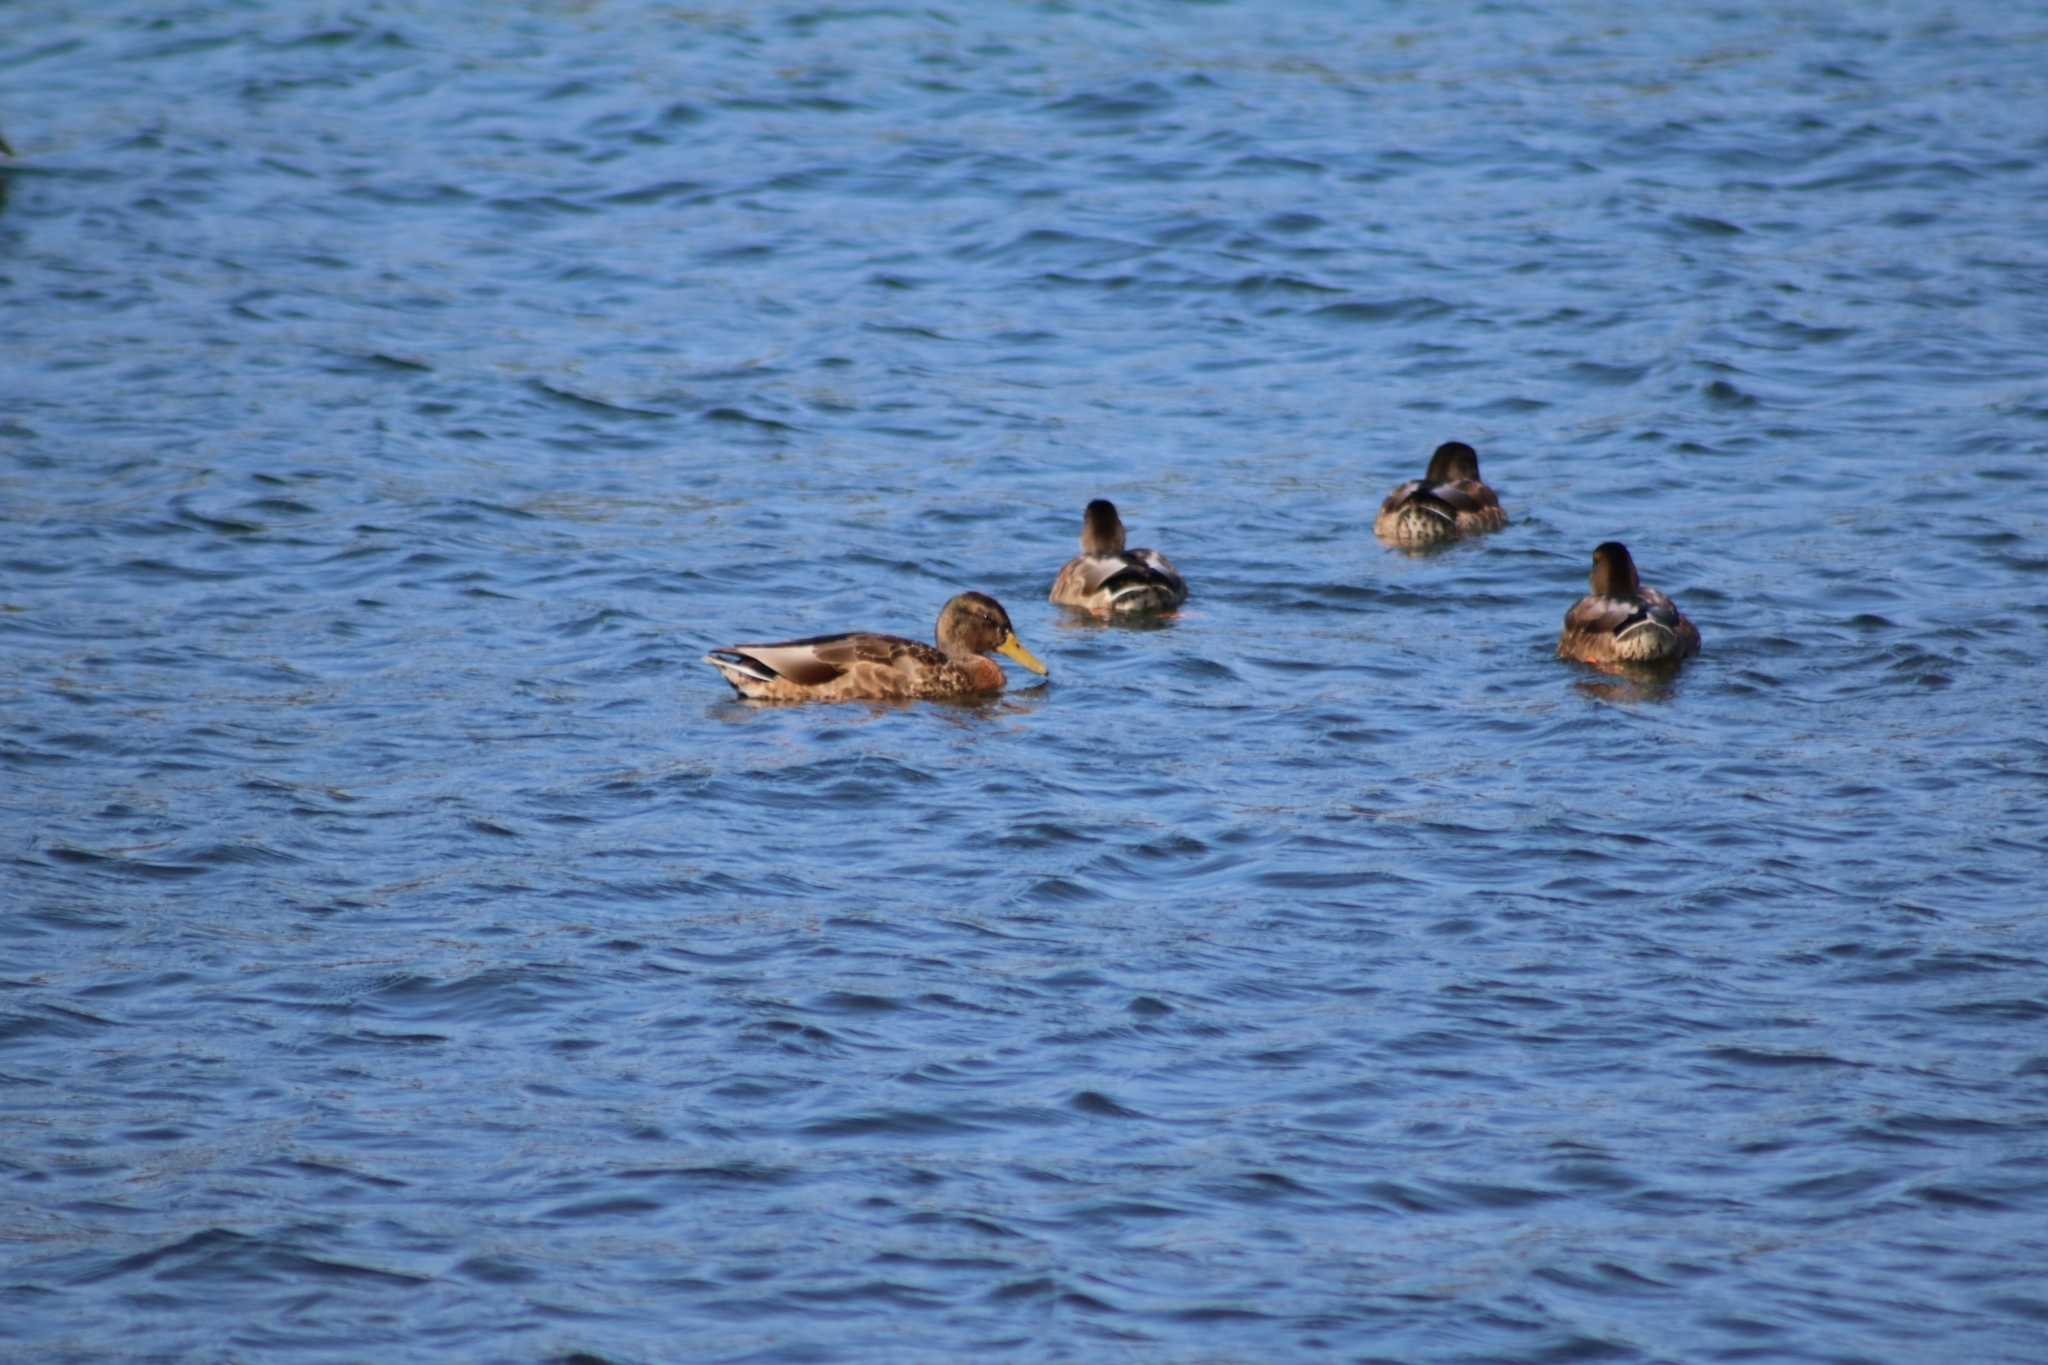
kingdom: Animalia
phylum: Chordata
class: Aves
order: Anseriformes
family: Anatidae
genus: Anas
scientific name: Anas platyrhynchos
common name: Mallard
